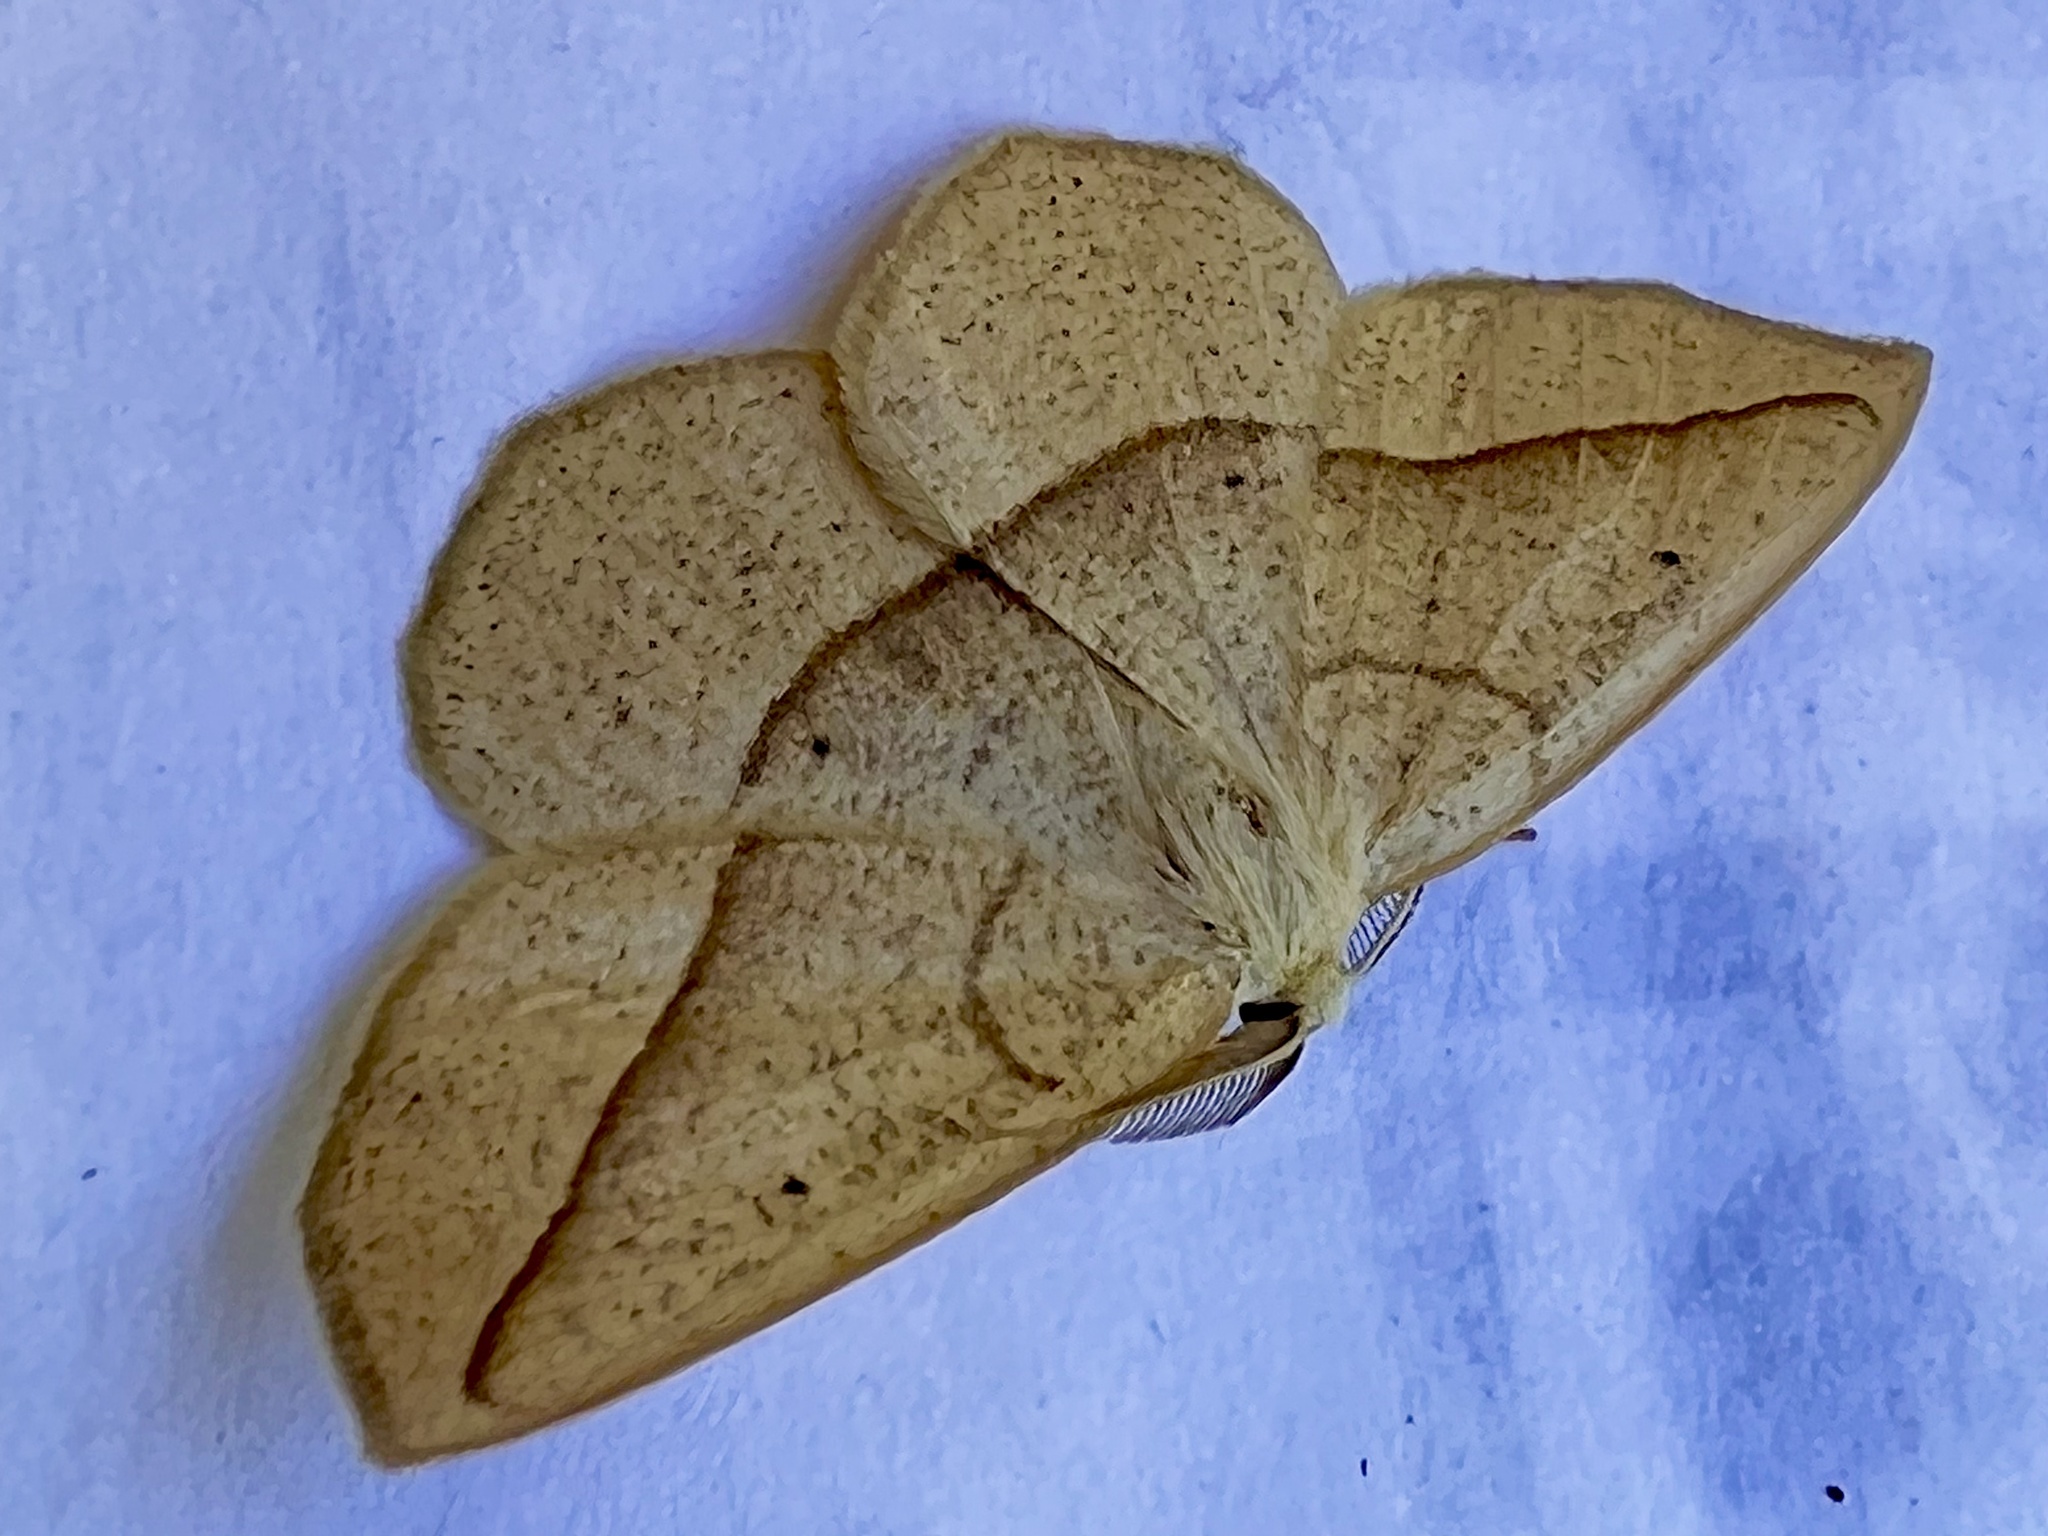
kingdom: Animalia
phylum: Arthropoda
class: Insecta
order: Lepidoptera
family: Geometridae
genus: Eusarca
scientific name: Eusarca confusaria
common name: Confused eusarca
